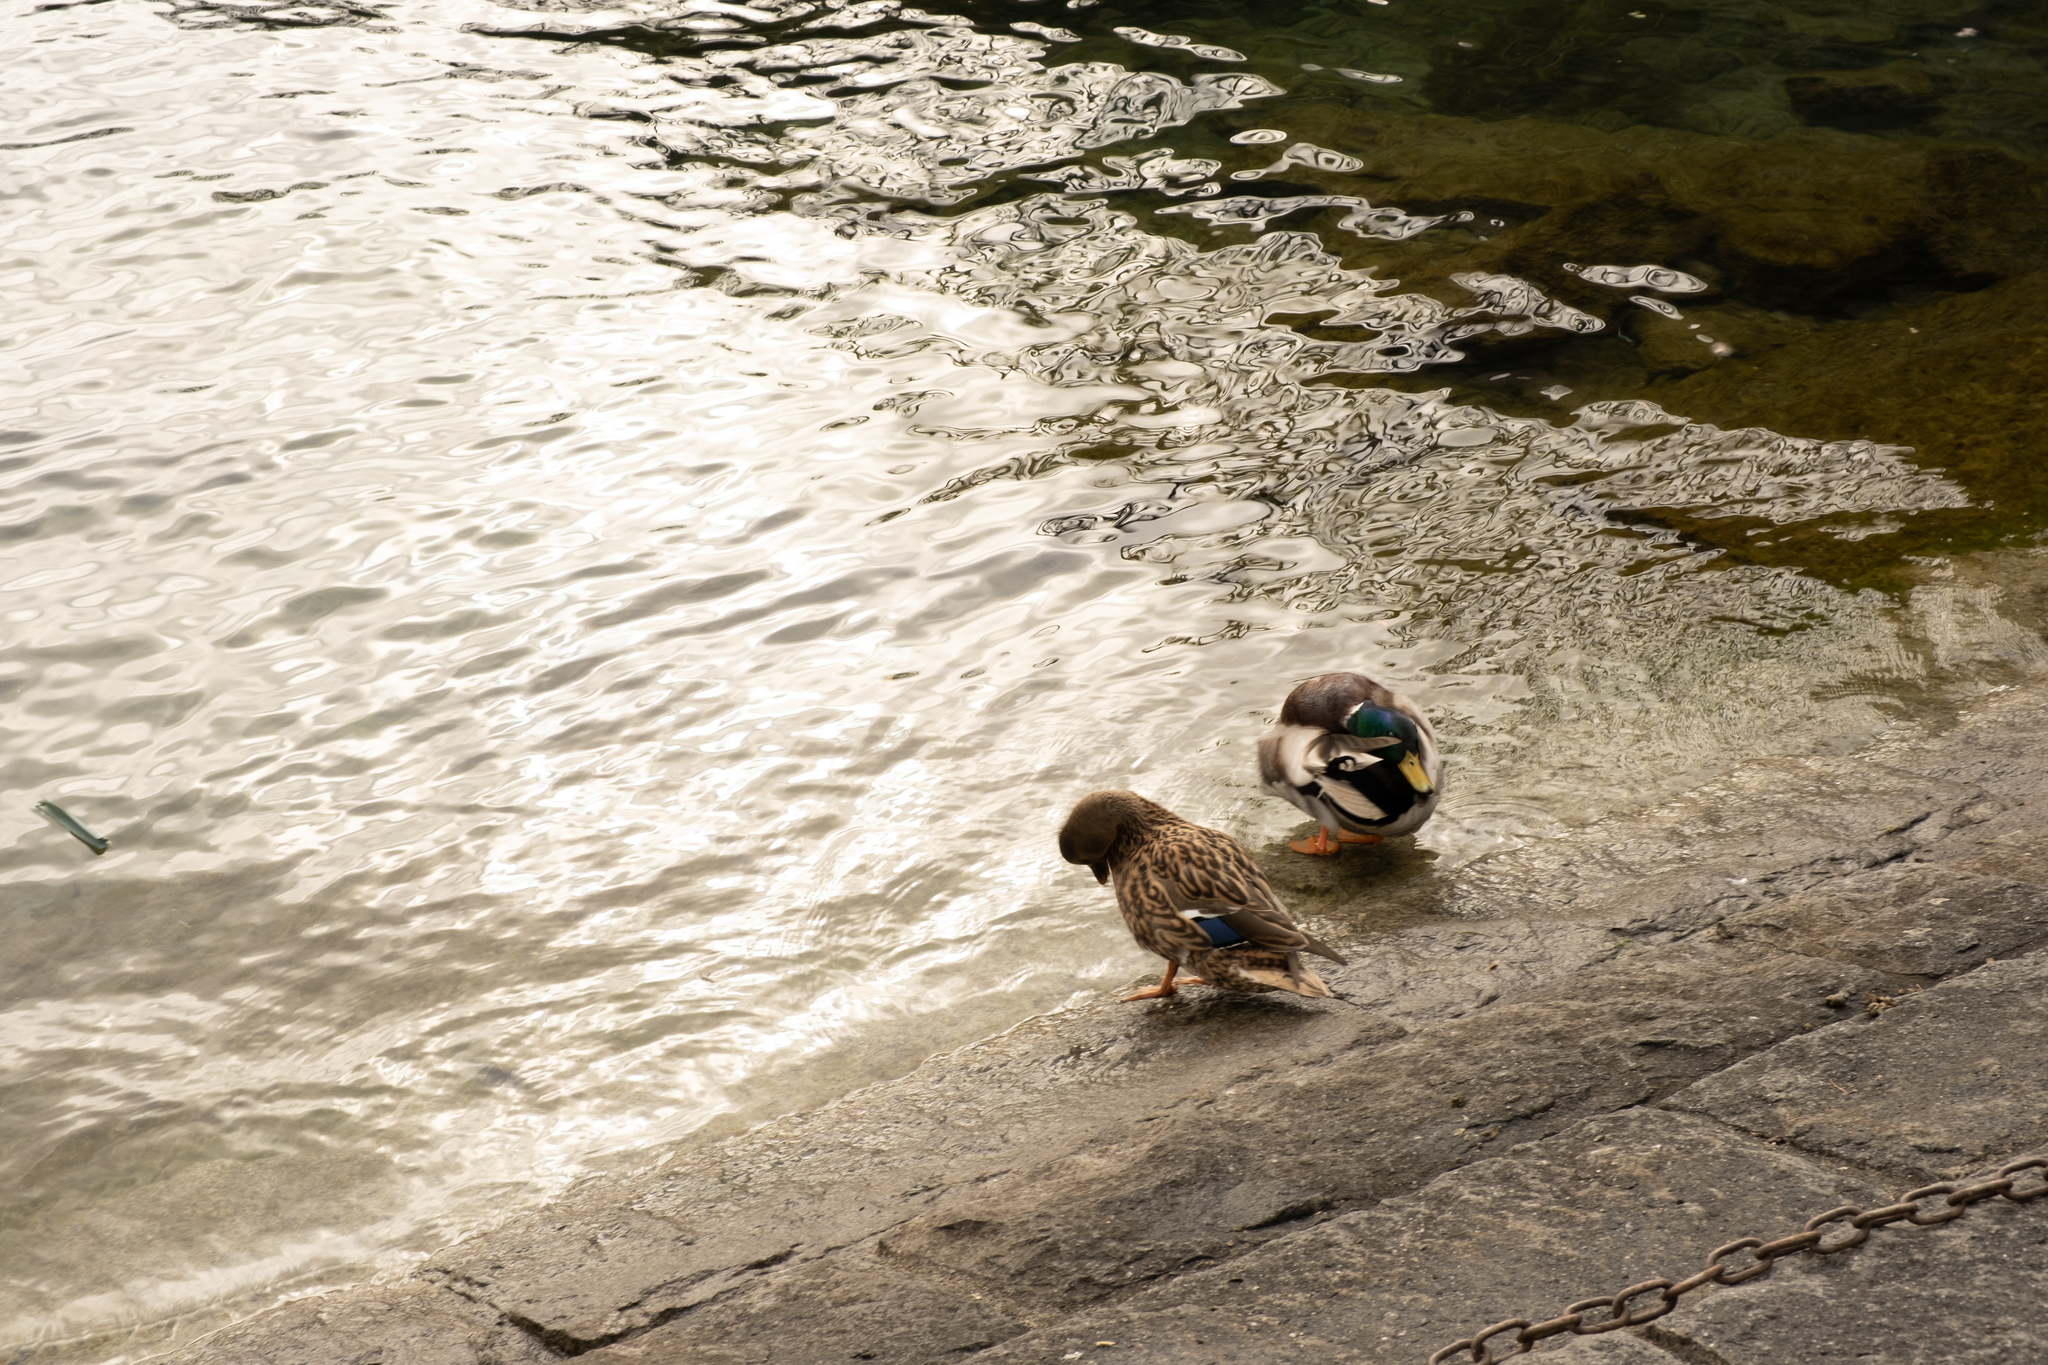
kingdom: Animalia
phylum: Chordata
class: Aves
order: Anseriformes
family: Anatidae
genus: Anas
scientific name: Anas platyrhynchos
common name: Mallard
